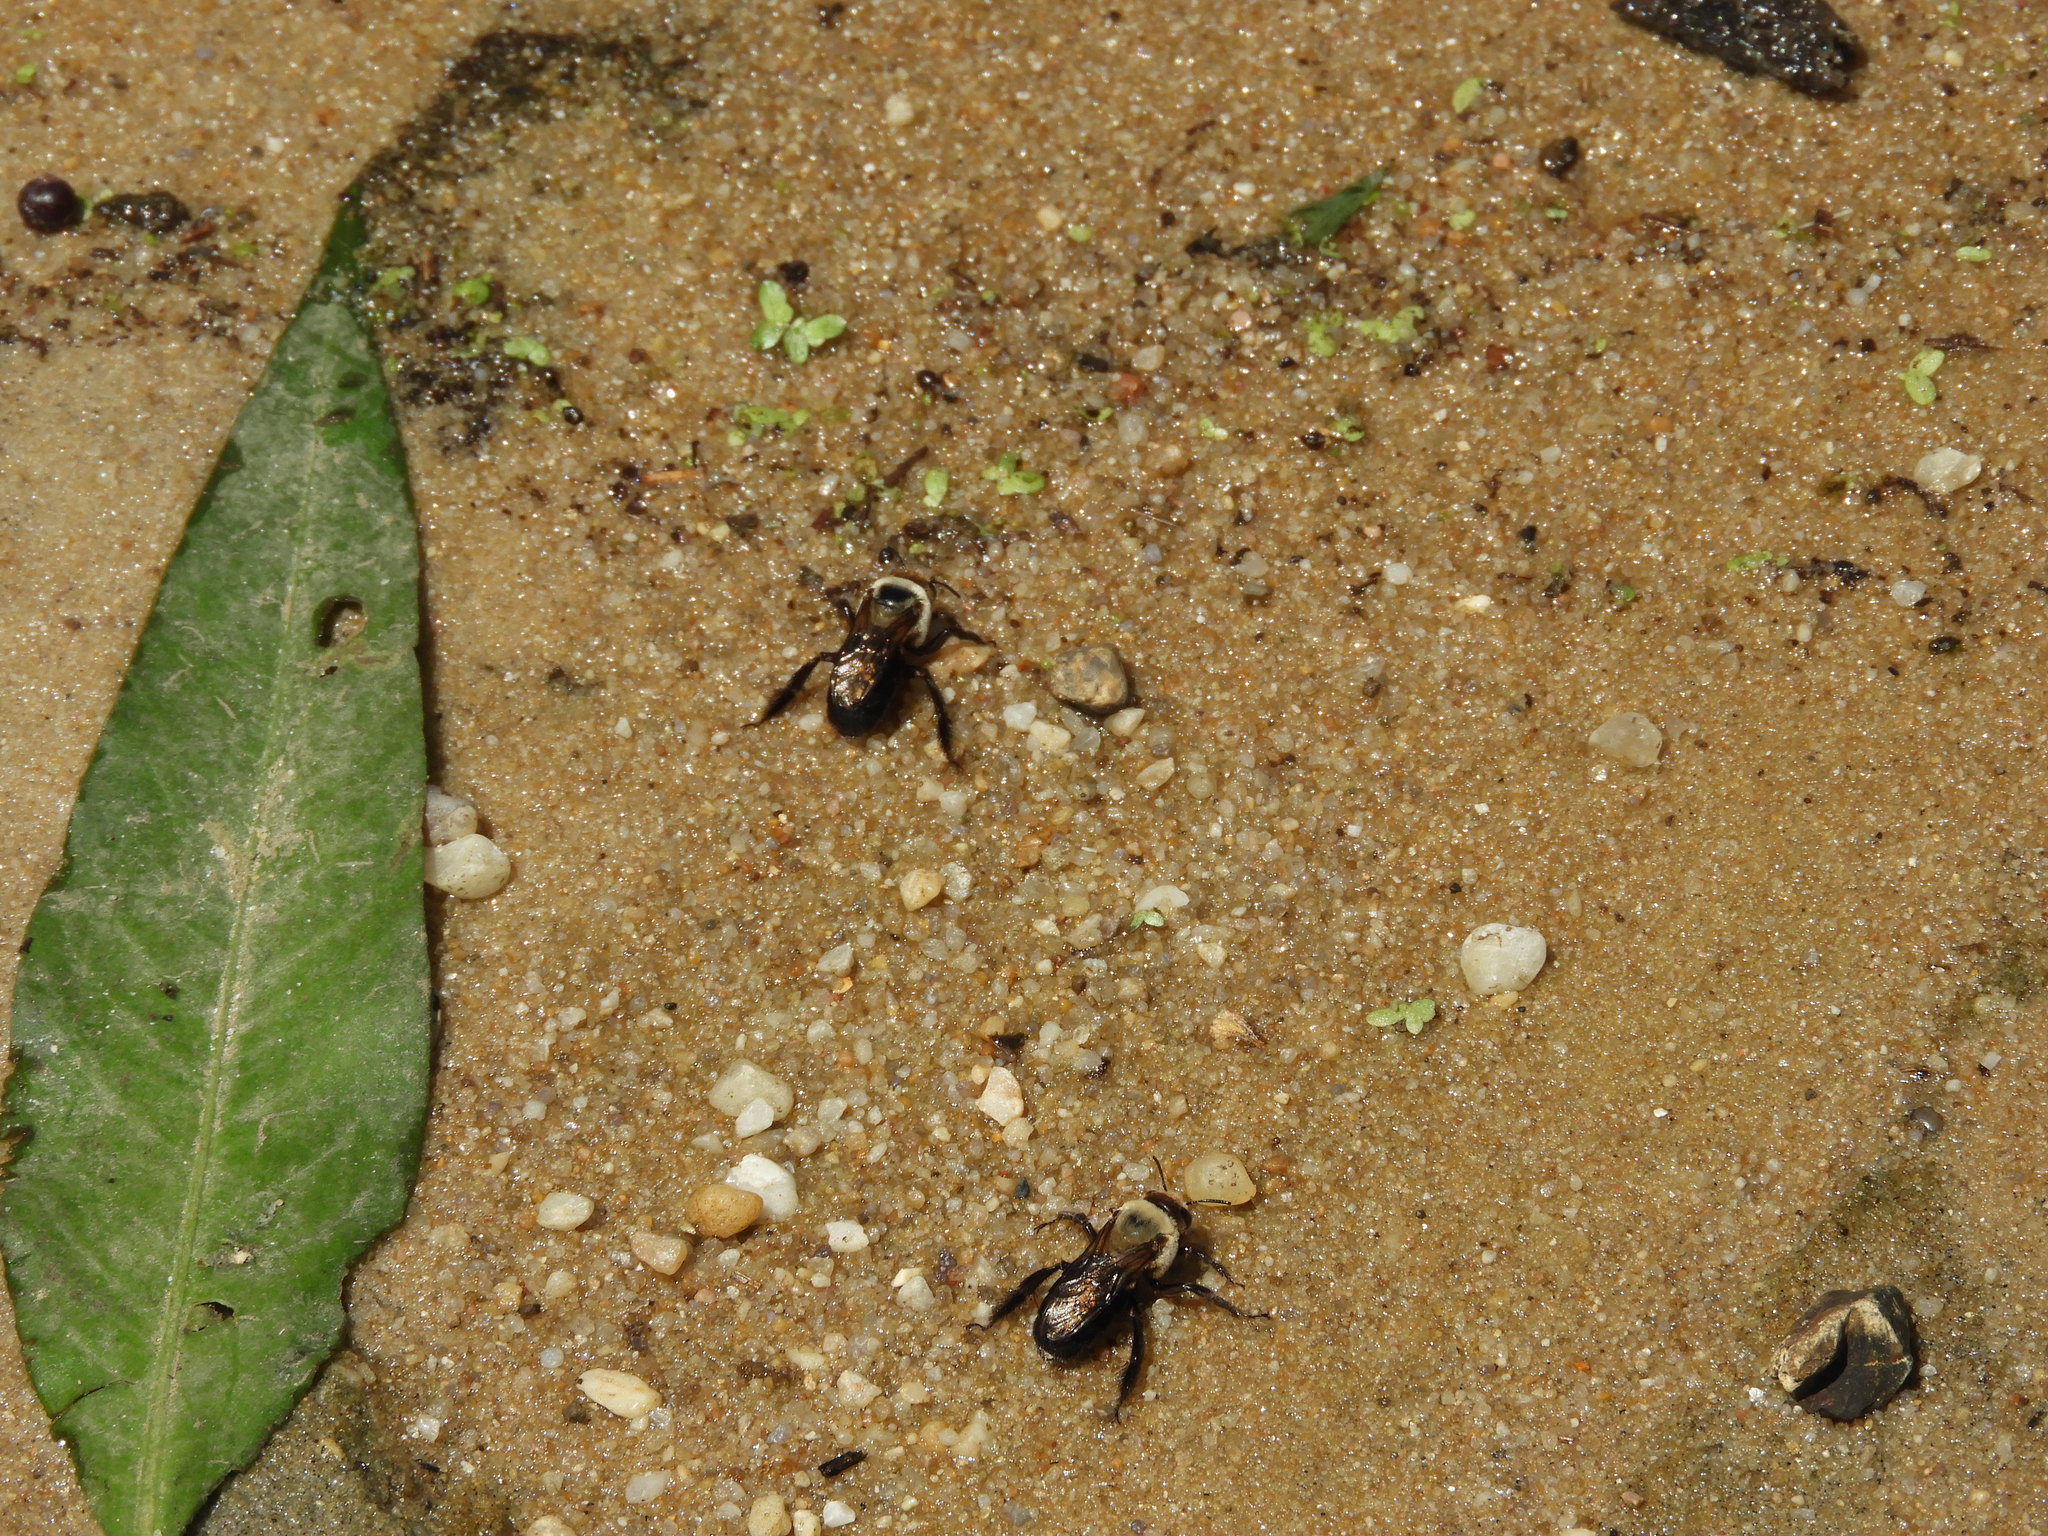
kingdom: Animalia
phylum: Arthropoda
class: Insecta
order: Hymenoptera
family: Apidae
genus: Ptilothrix
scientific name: Ptilothrix bombiformis
